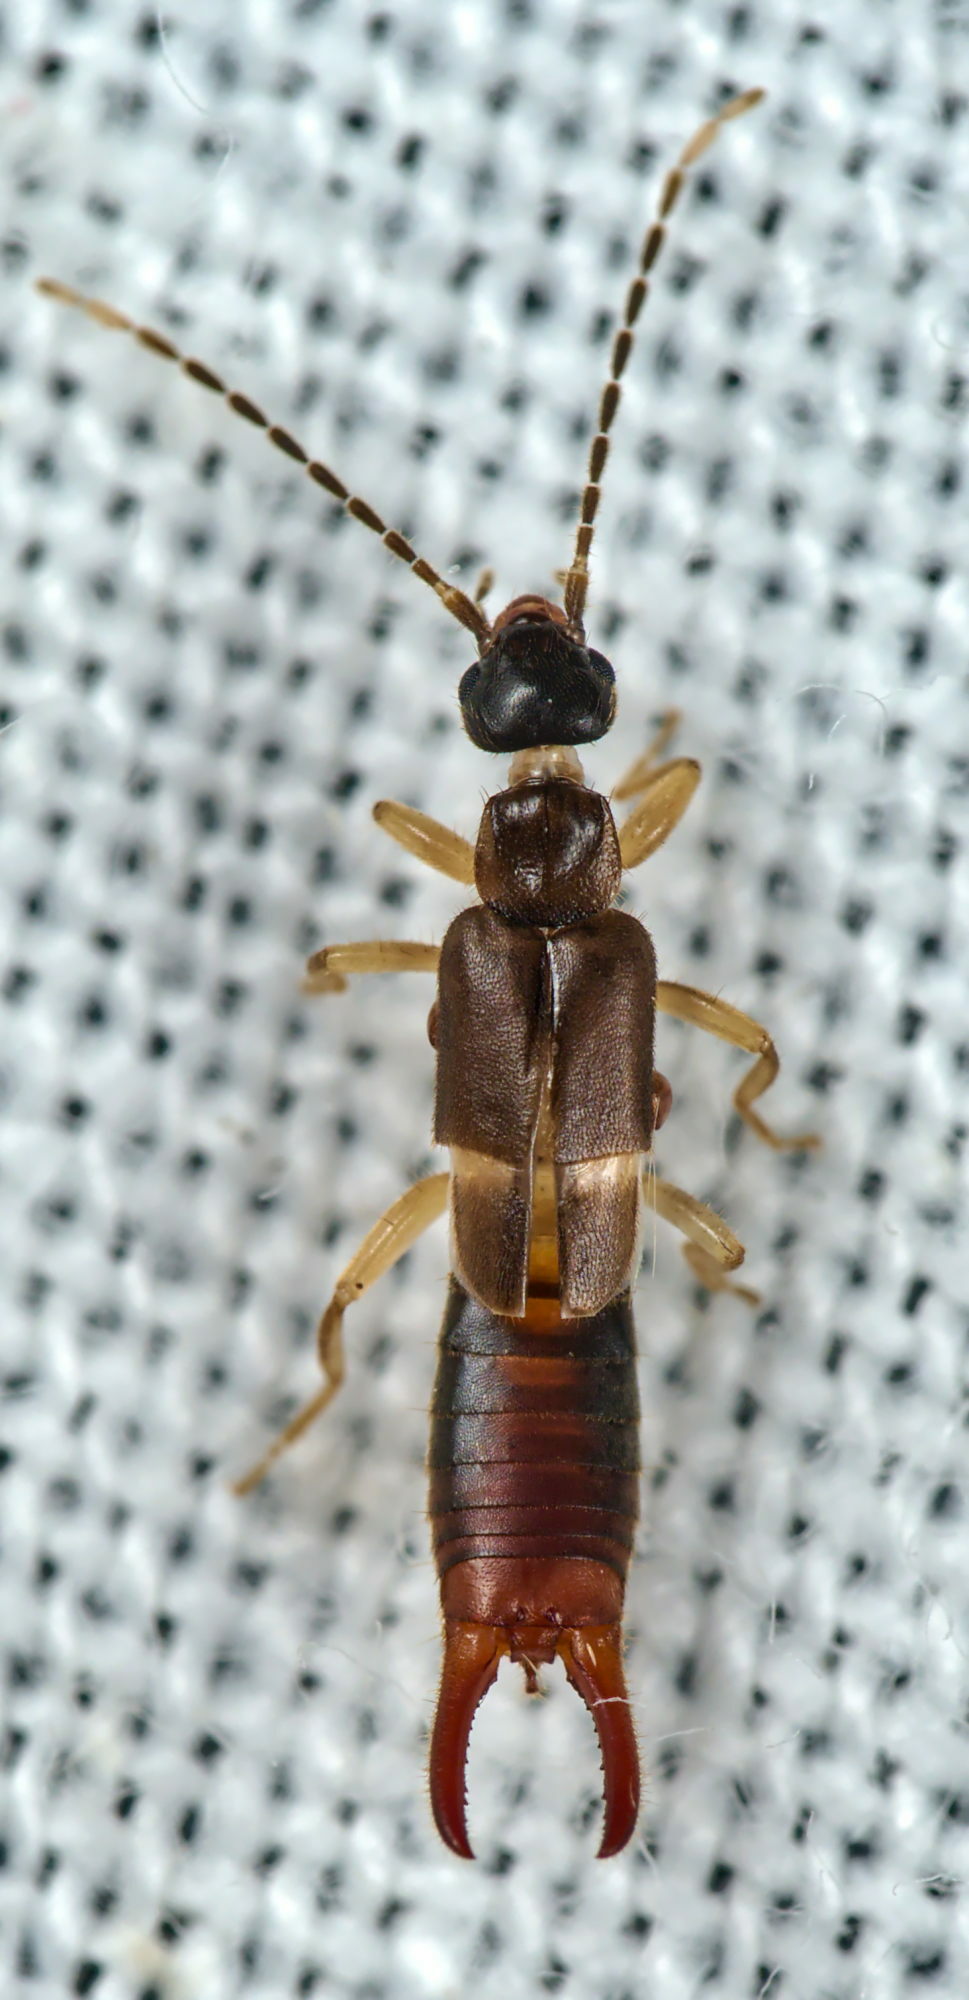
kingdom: Animalia
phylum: Arthropoda
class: Insecta
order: Dermaptera
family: Spongiphoridae
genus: Labia
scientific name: Labia minor
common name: Lesser earwig
